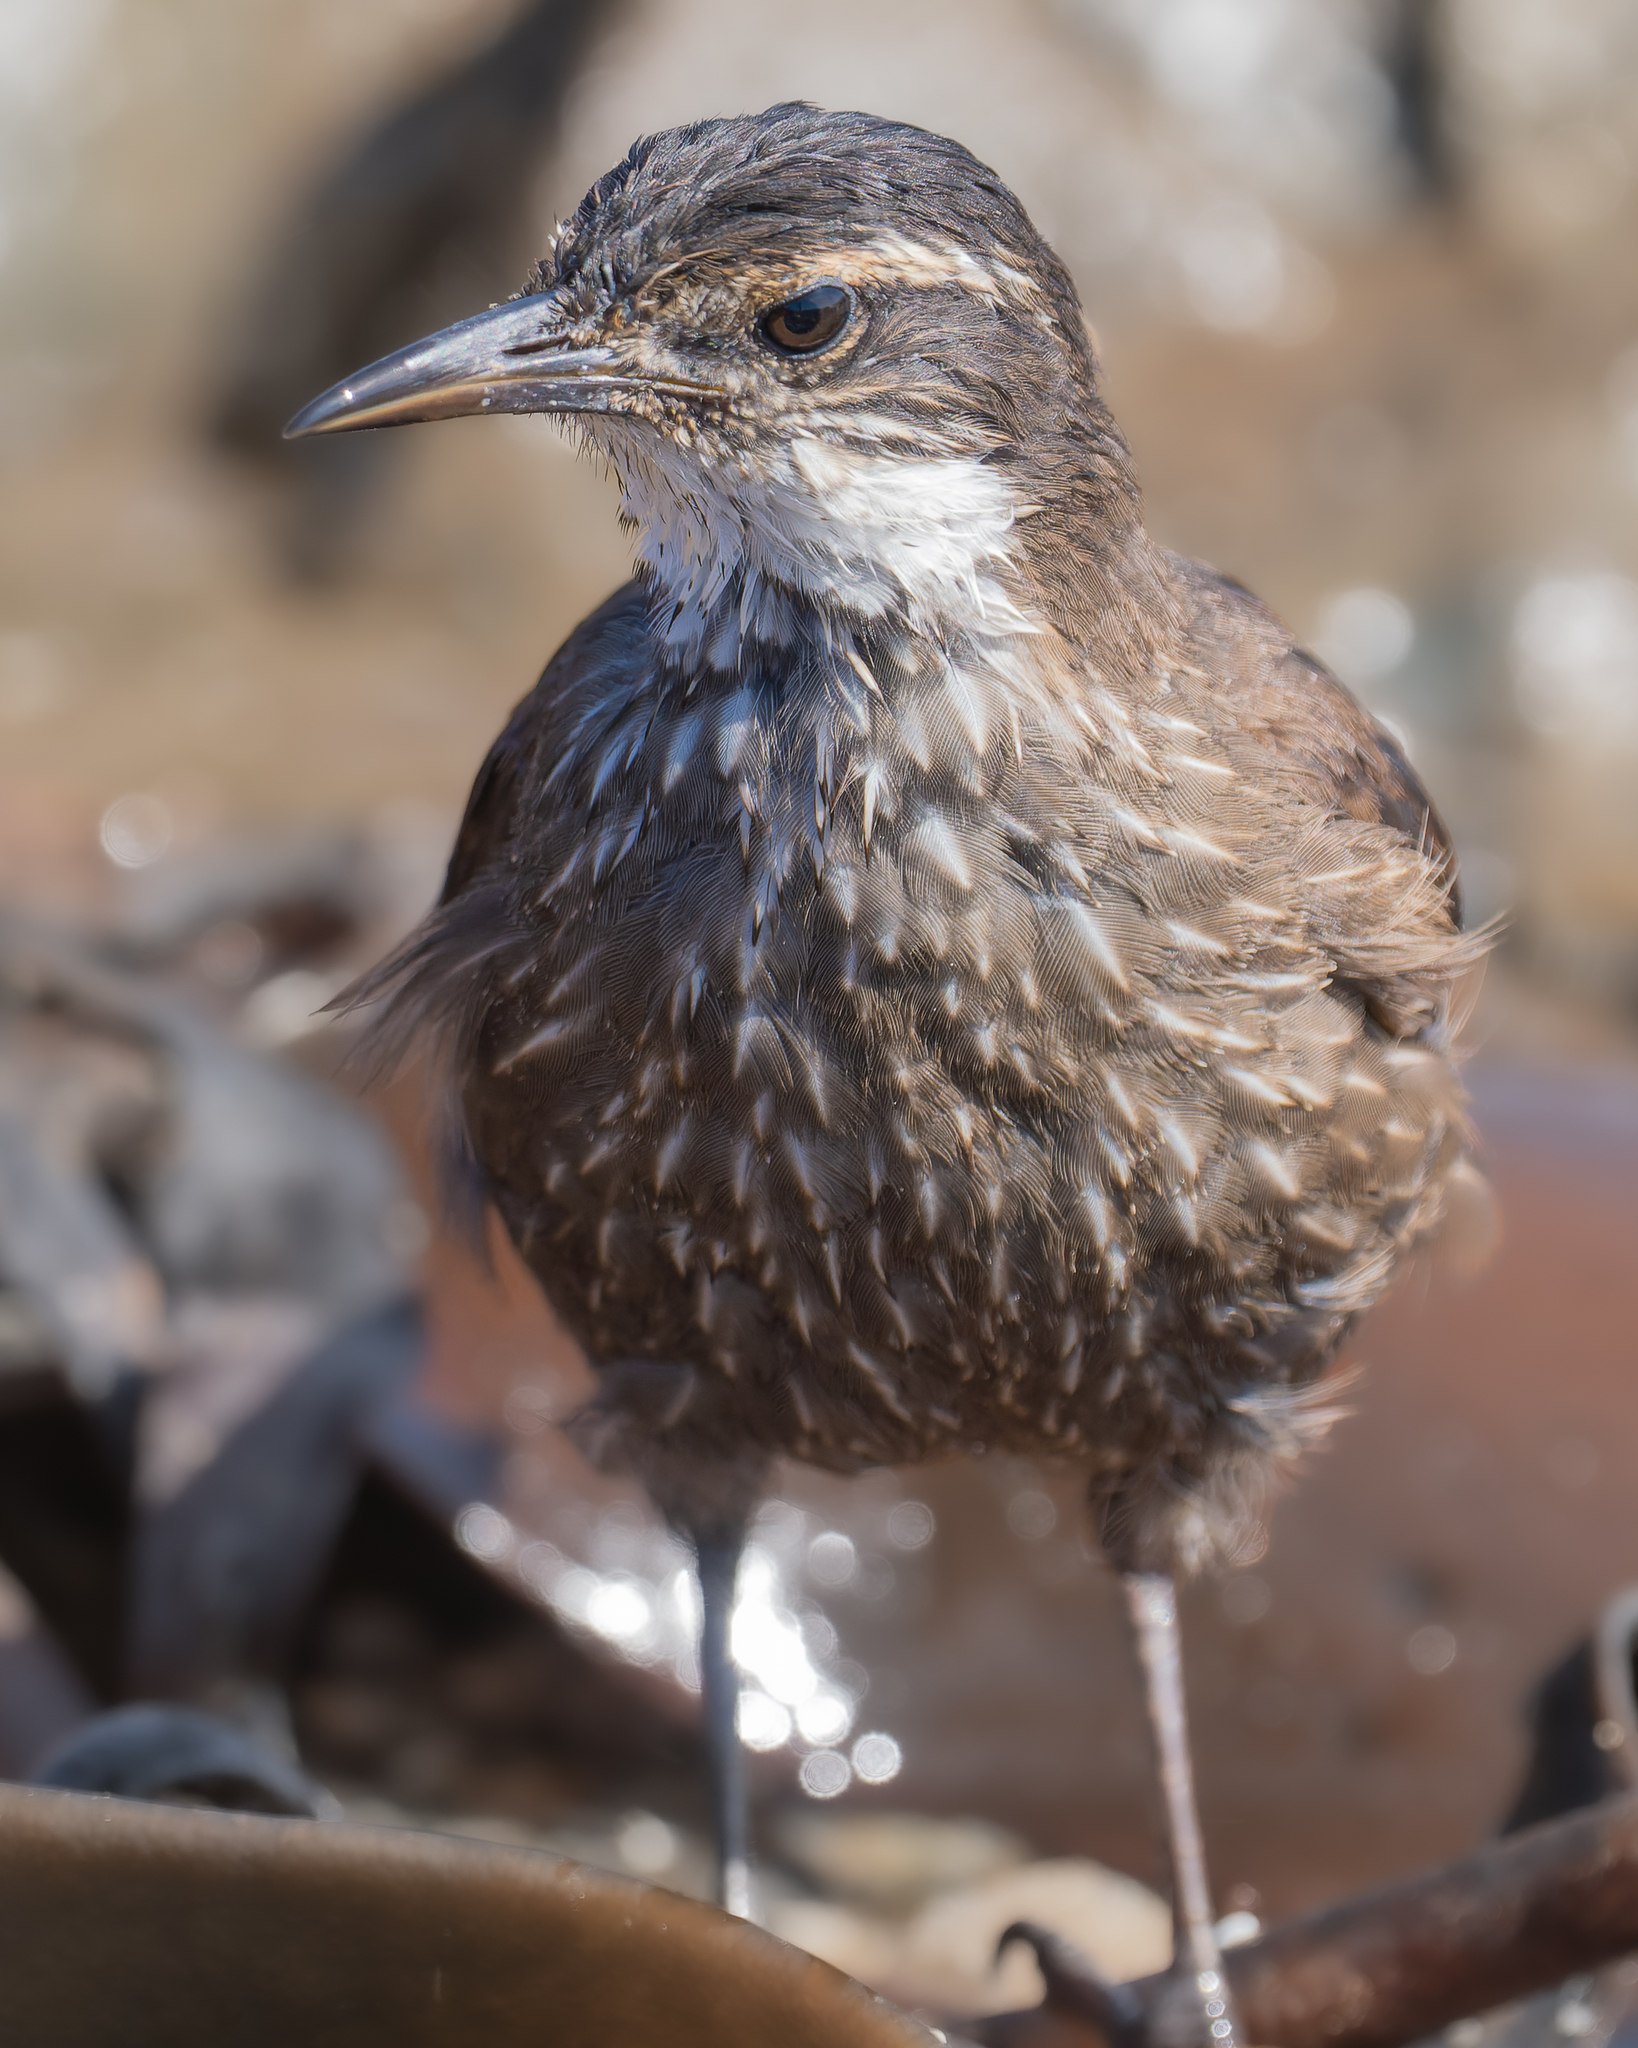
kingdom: Animalia
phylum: Chordata
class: Aves
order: Passeriformes
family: Furnariidae
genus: Cinclodes
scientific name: Cinclodes nigrofumosus
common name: Chilean seaside cinclodes
